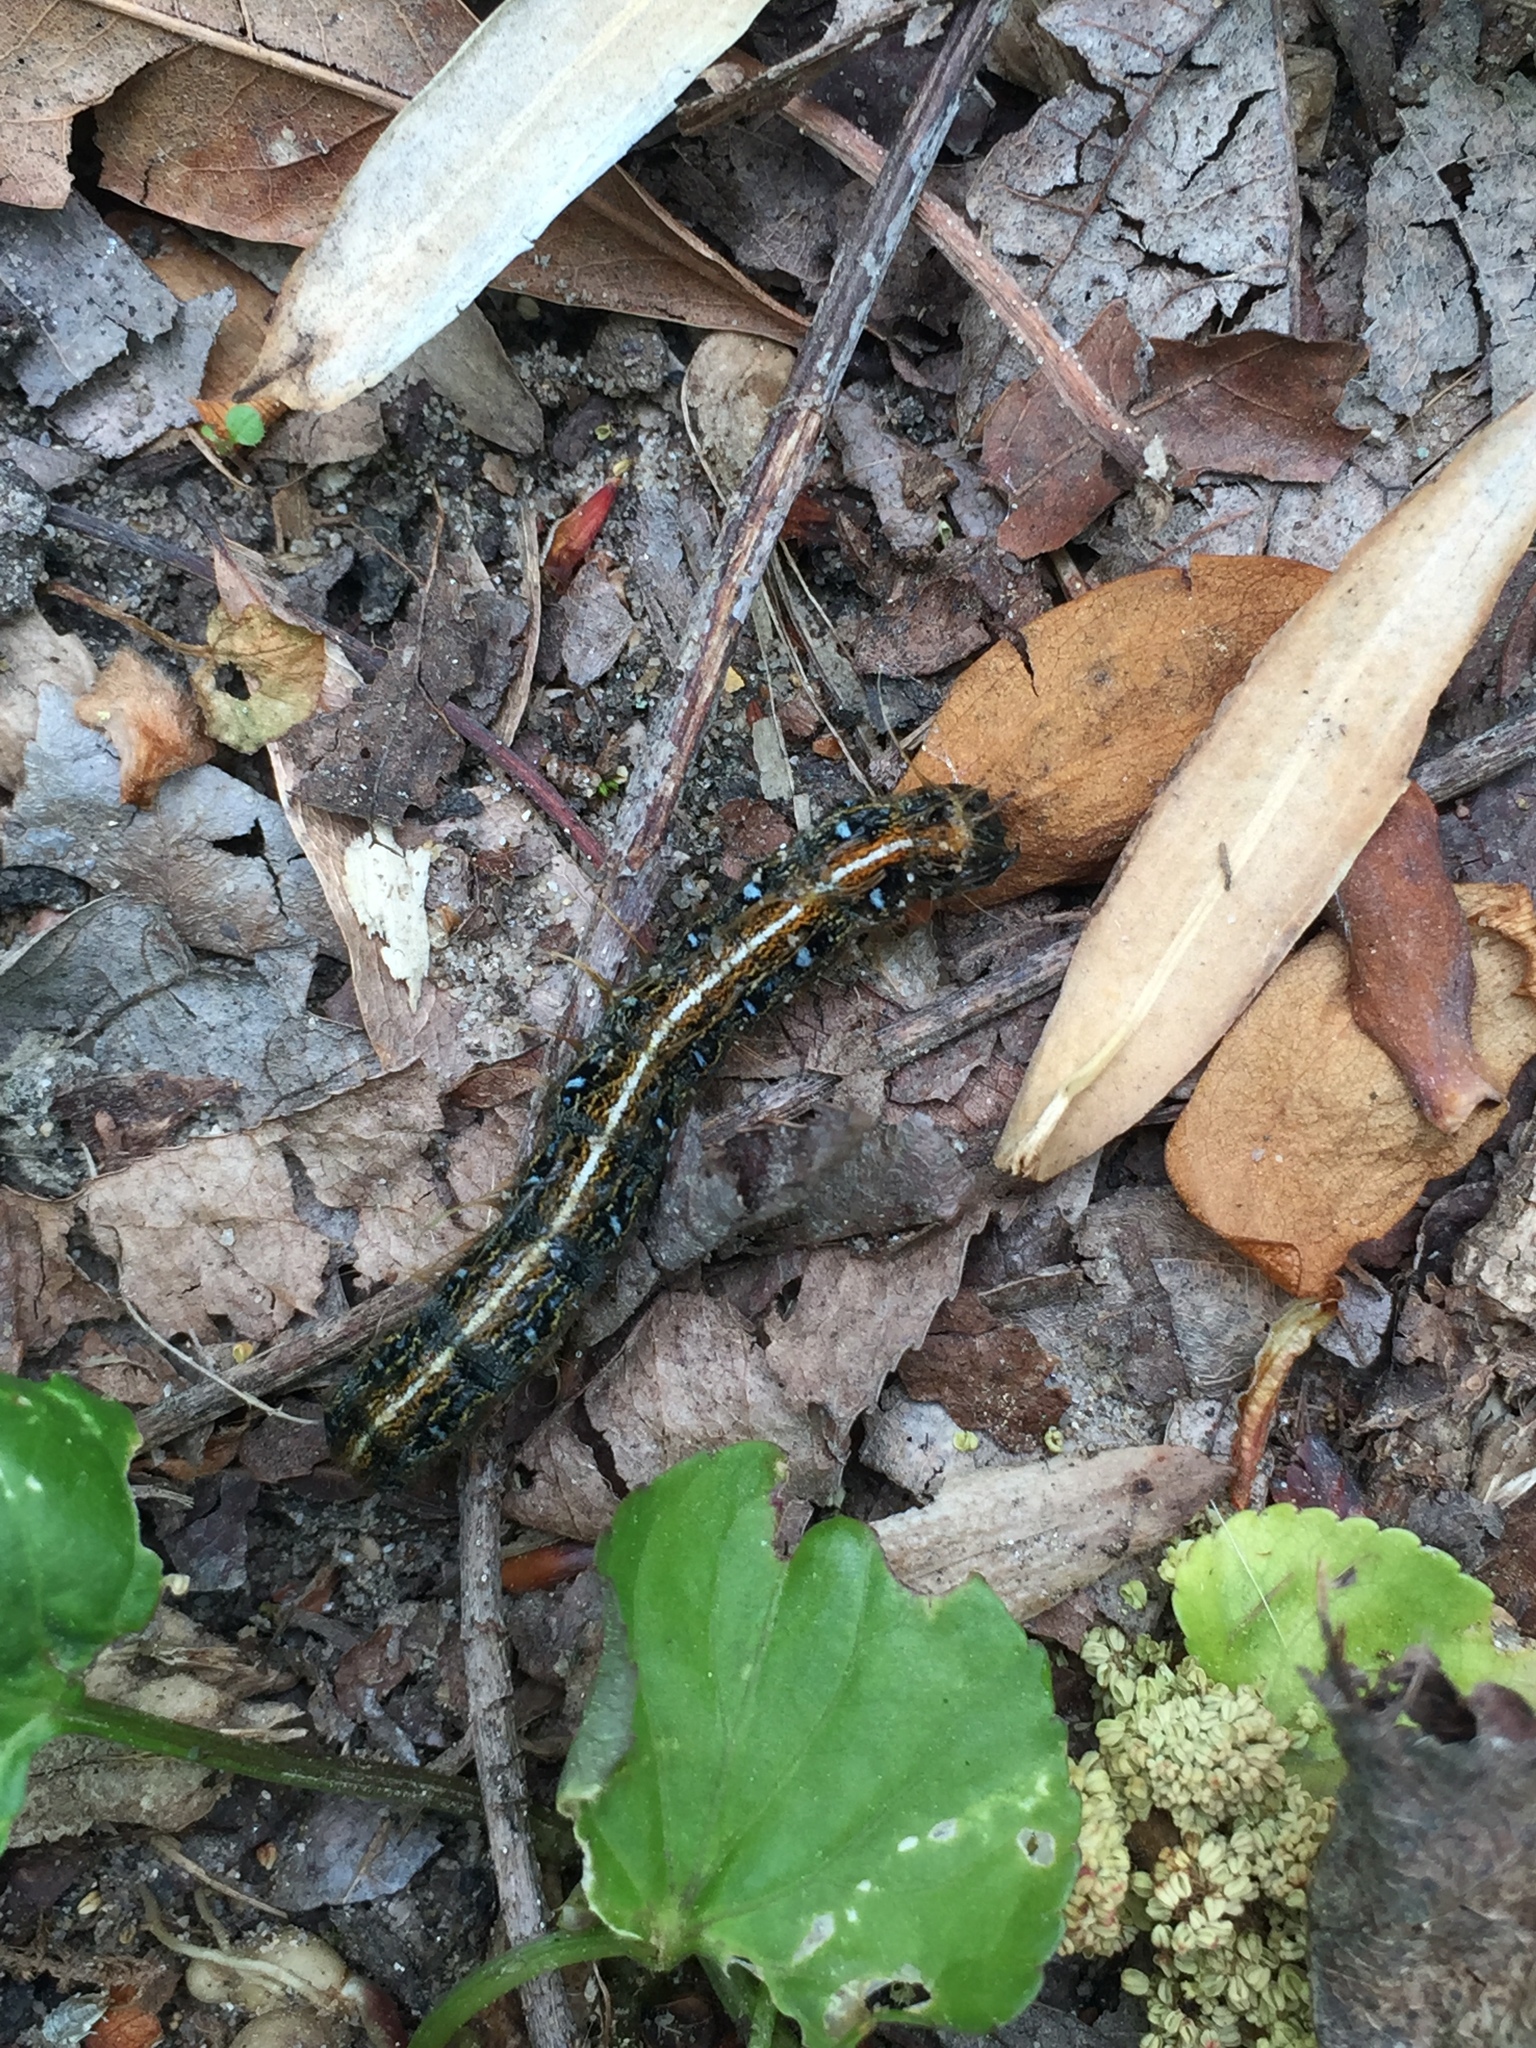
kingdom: Animalia
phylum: Arthropoda
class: Insecta
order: Lepidoptera
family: Lasiocampidae
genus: Malacosoma
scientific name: Malacosoma americana
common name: Eastern tent caterpillar moth
